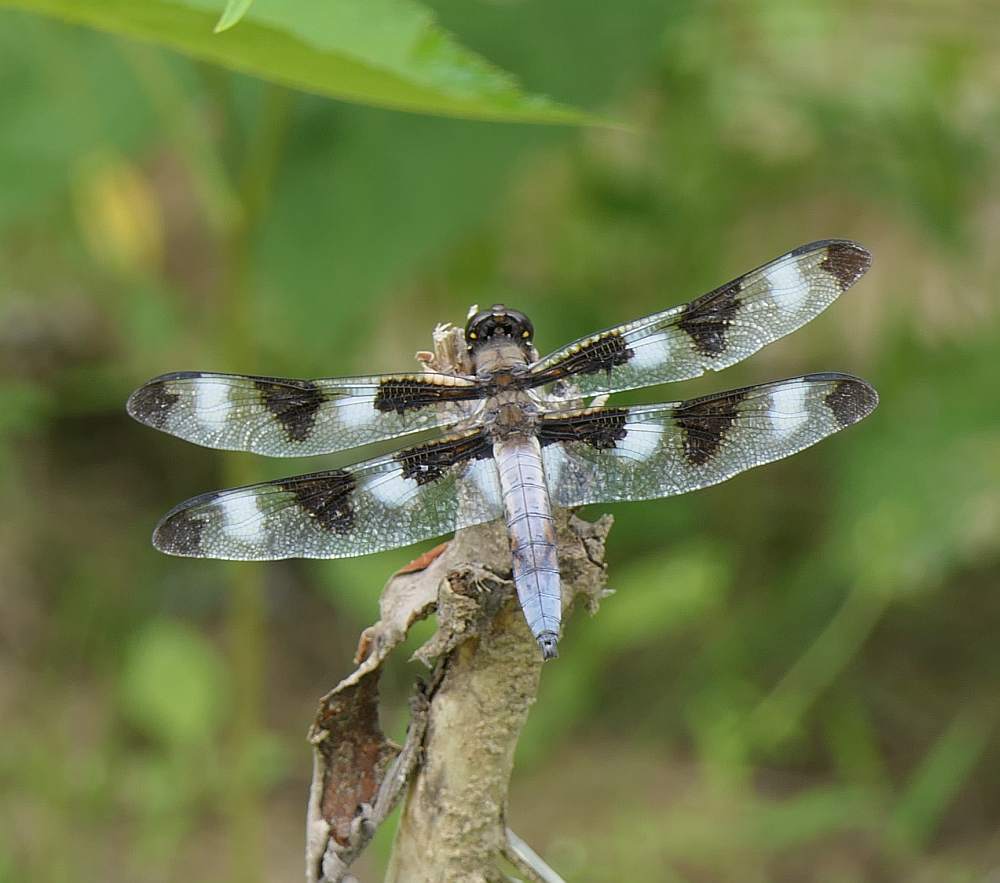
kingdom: Animalia
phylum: Arthropoda
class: Insecta
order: Odonata
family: Libellulidae
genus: Libellula
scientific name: Libellula pulchella
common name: Twelve-spotted skimmer
